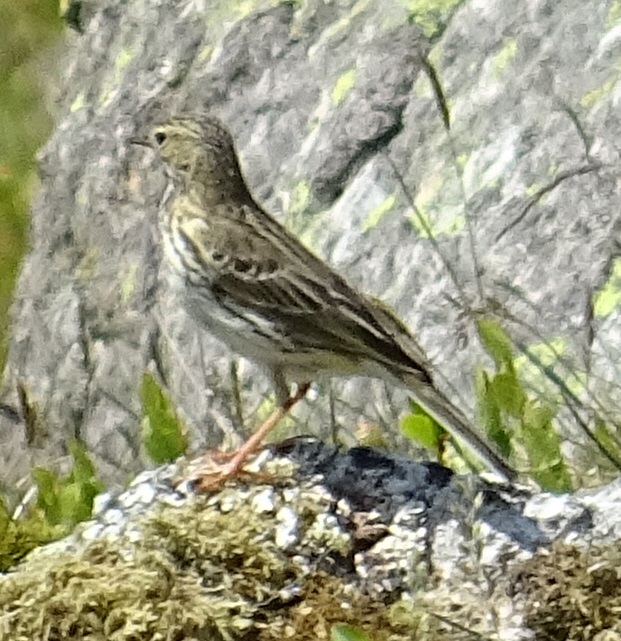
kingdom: Animalia
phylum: Chordata
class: Aves
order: Passeriformes
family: Motacillidae
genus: Anthus
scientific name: Anthus pratensis
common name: Meadow pipit
